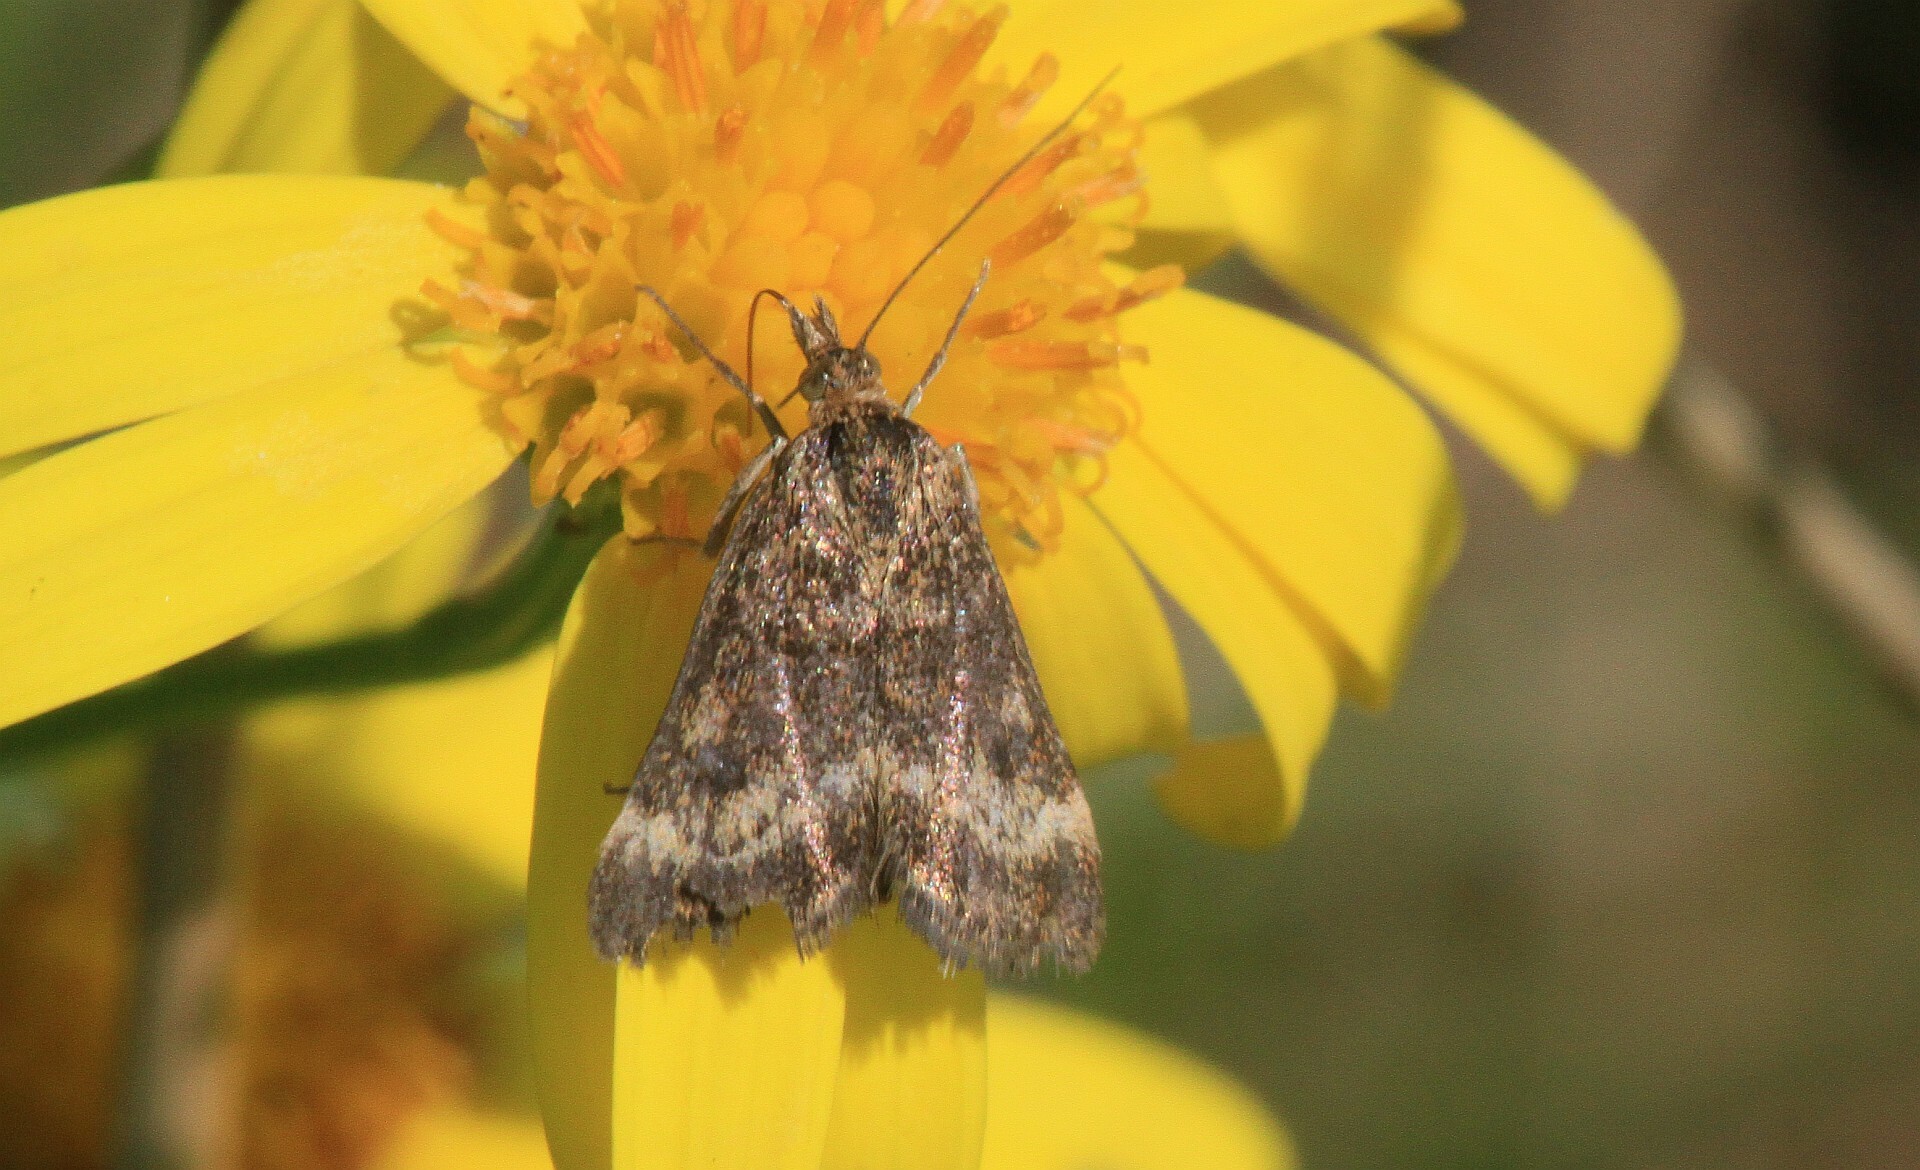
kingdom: Animalia
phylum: Arthropoda
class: Insecta
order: Lepidoptera
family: Crambidae
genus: Pyrausta
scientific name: Pyrausta despicata
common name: Straw-barred pearl
